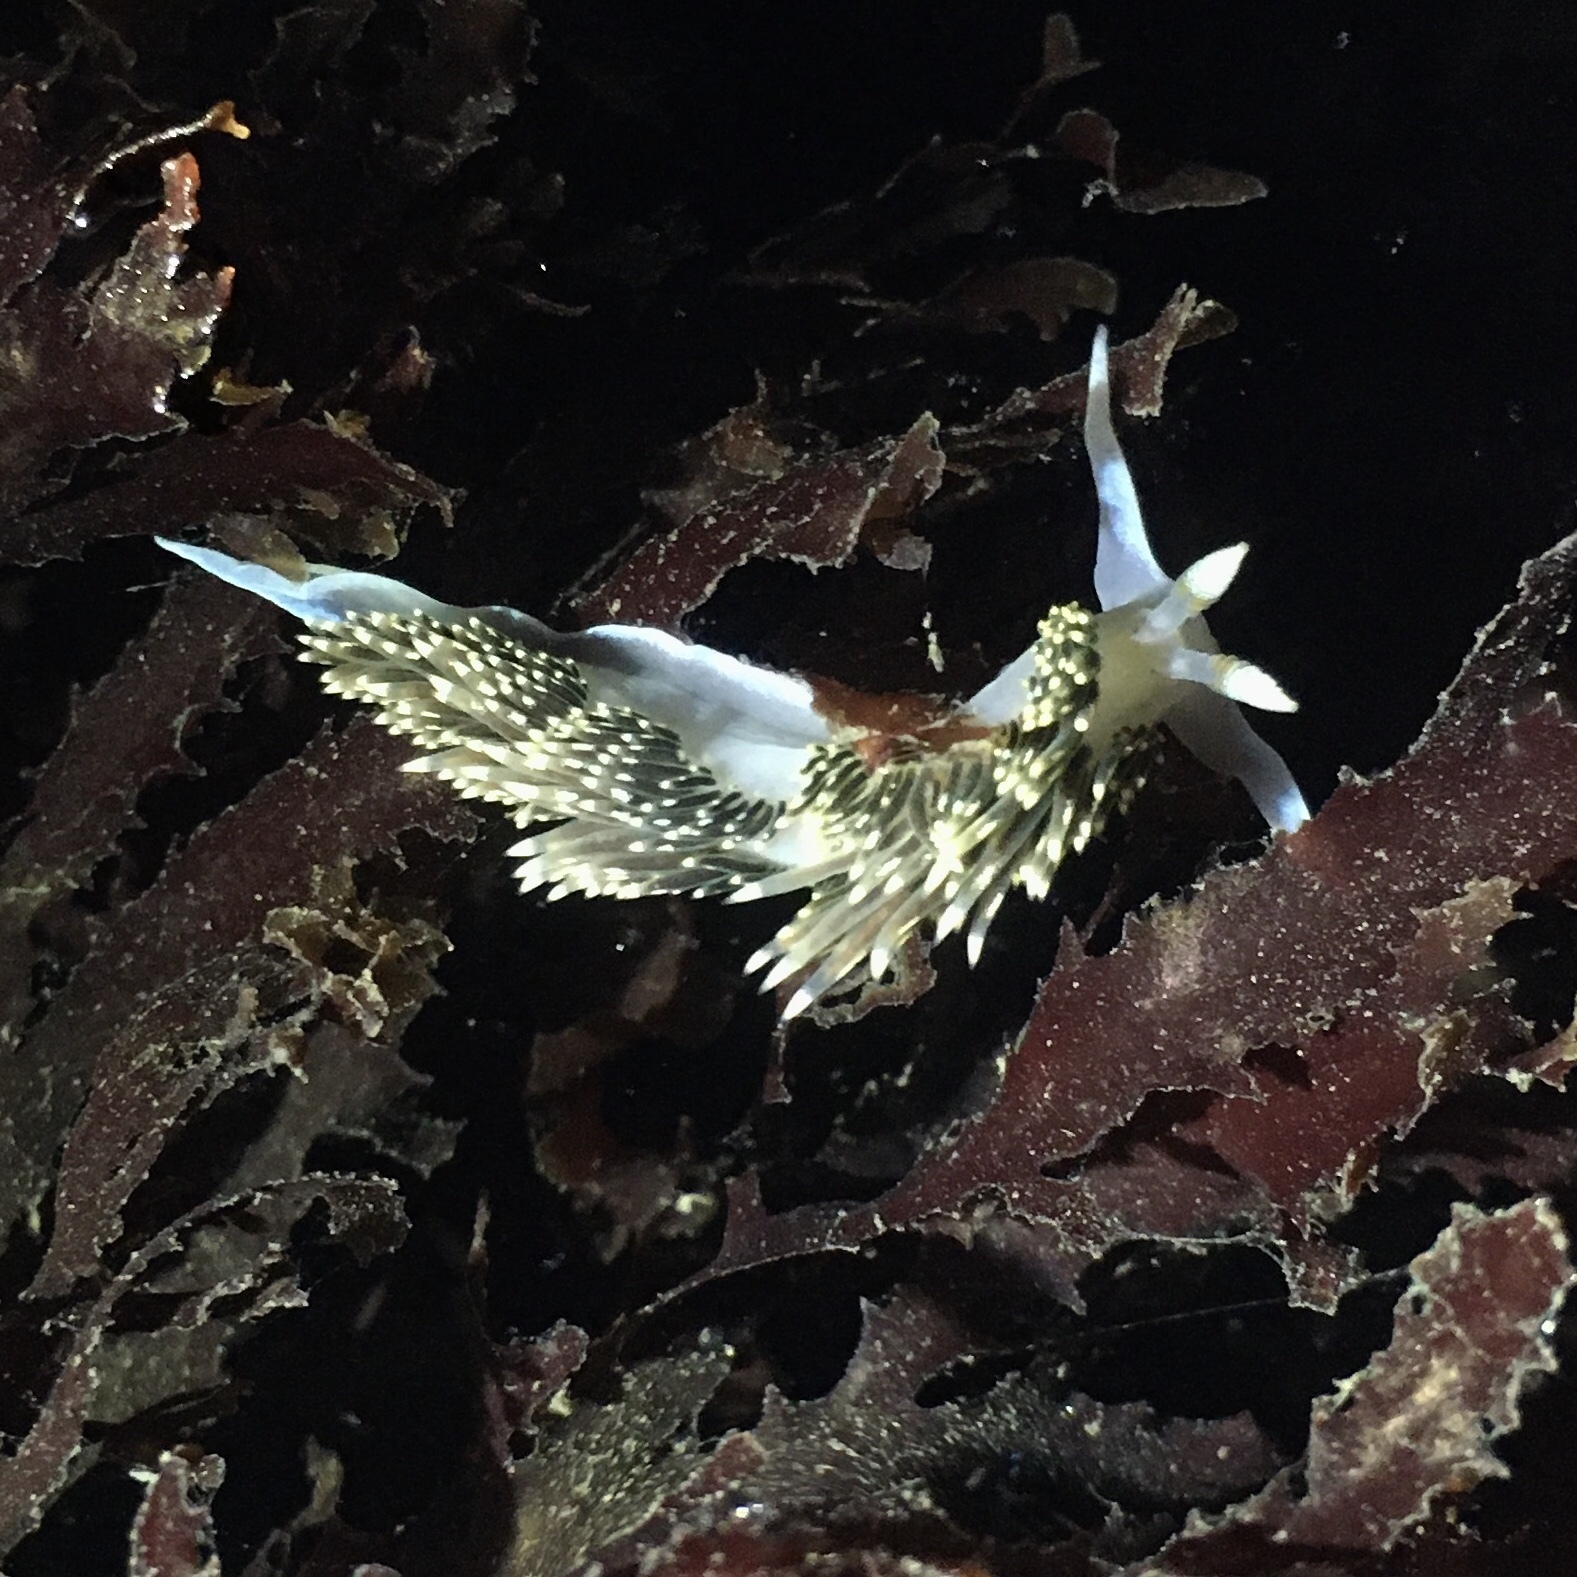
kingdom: Animalia
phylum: Mollusca
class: Gastropoda
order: Nudibranchia
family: Facelinidae
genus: Phidiana
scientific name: Phidiana hiltoni
